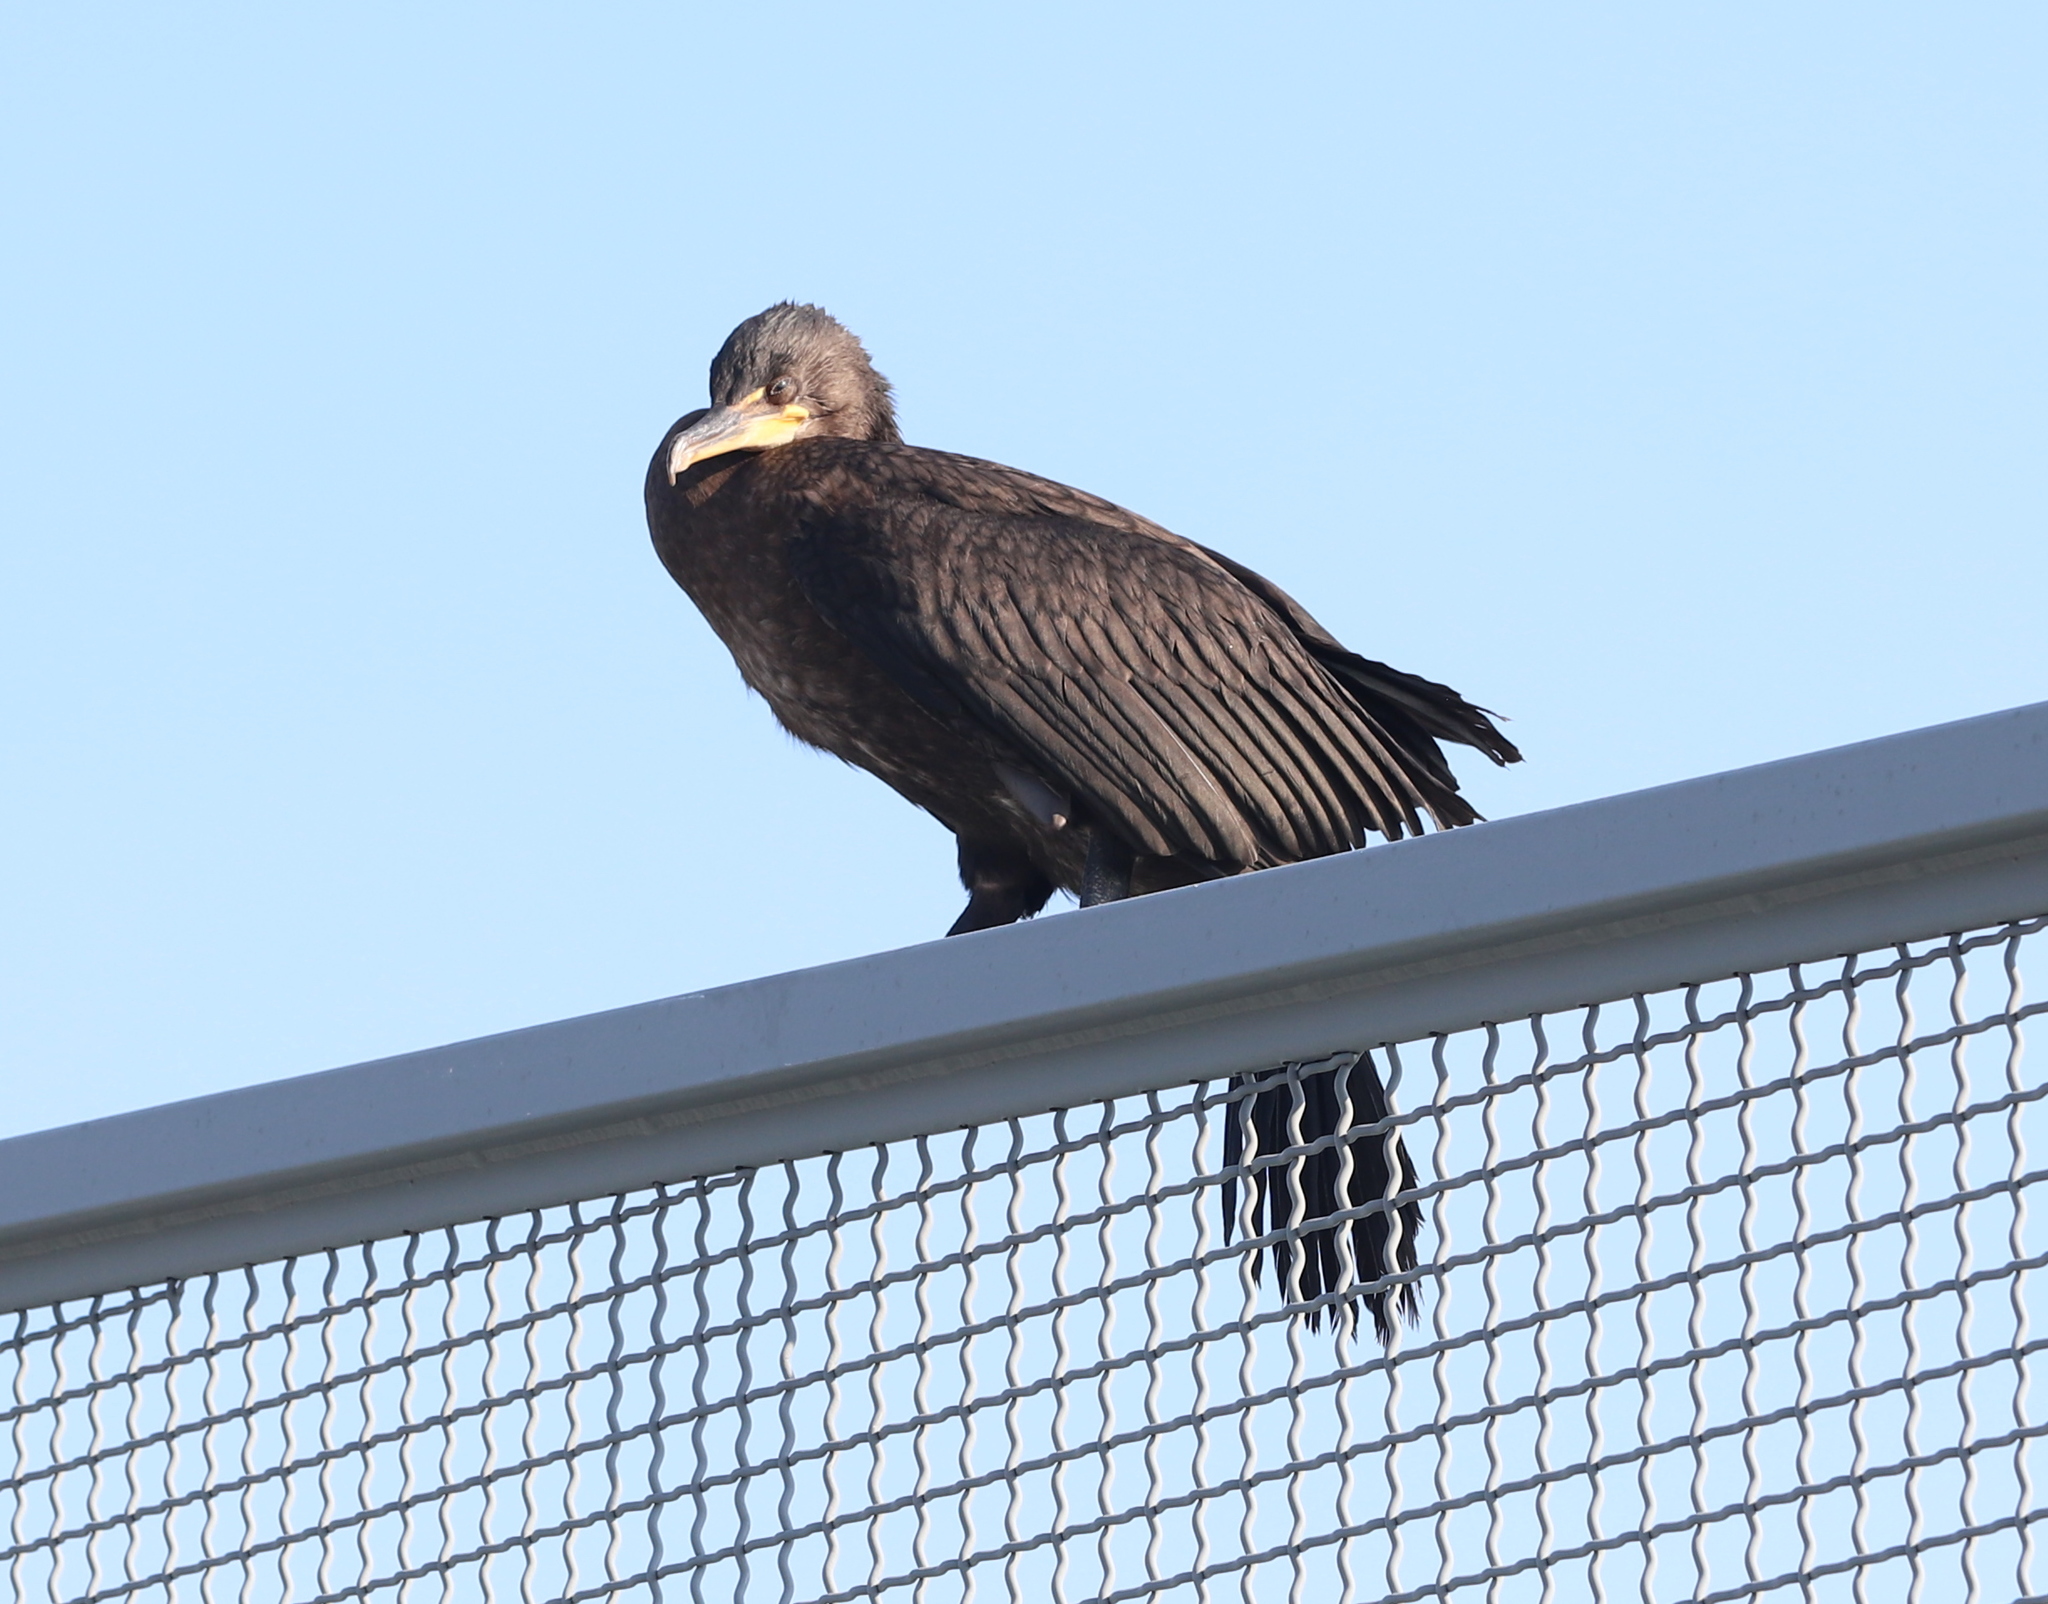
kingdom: Animalia
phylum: Chordata
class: Aves
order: Suliformes
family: Phalacrocoracidae
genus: Phalacrocorax
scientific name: Phalacrocorax auritus
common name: Double-crested cormorant
